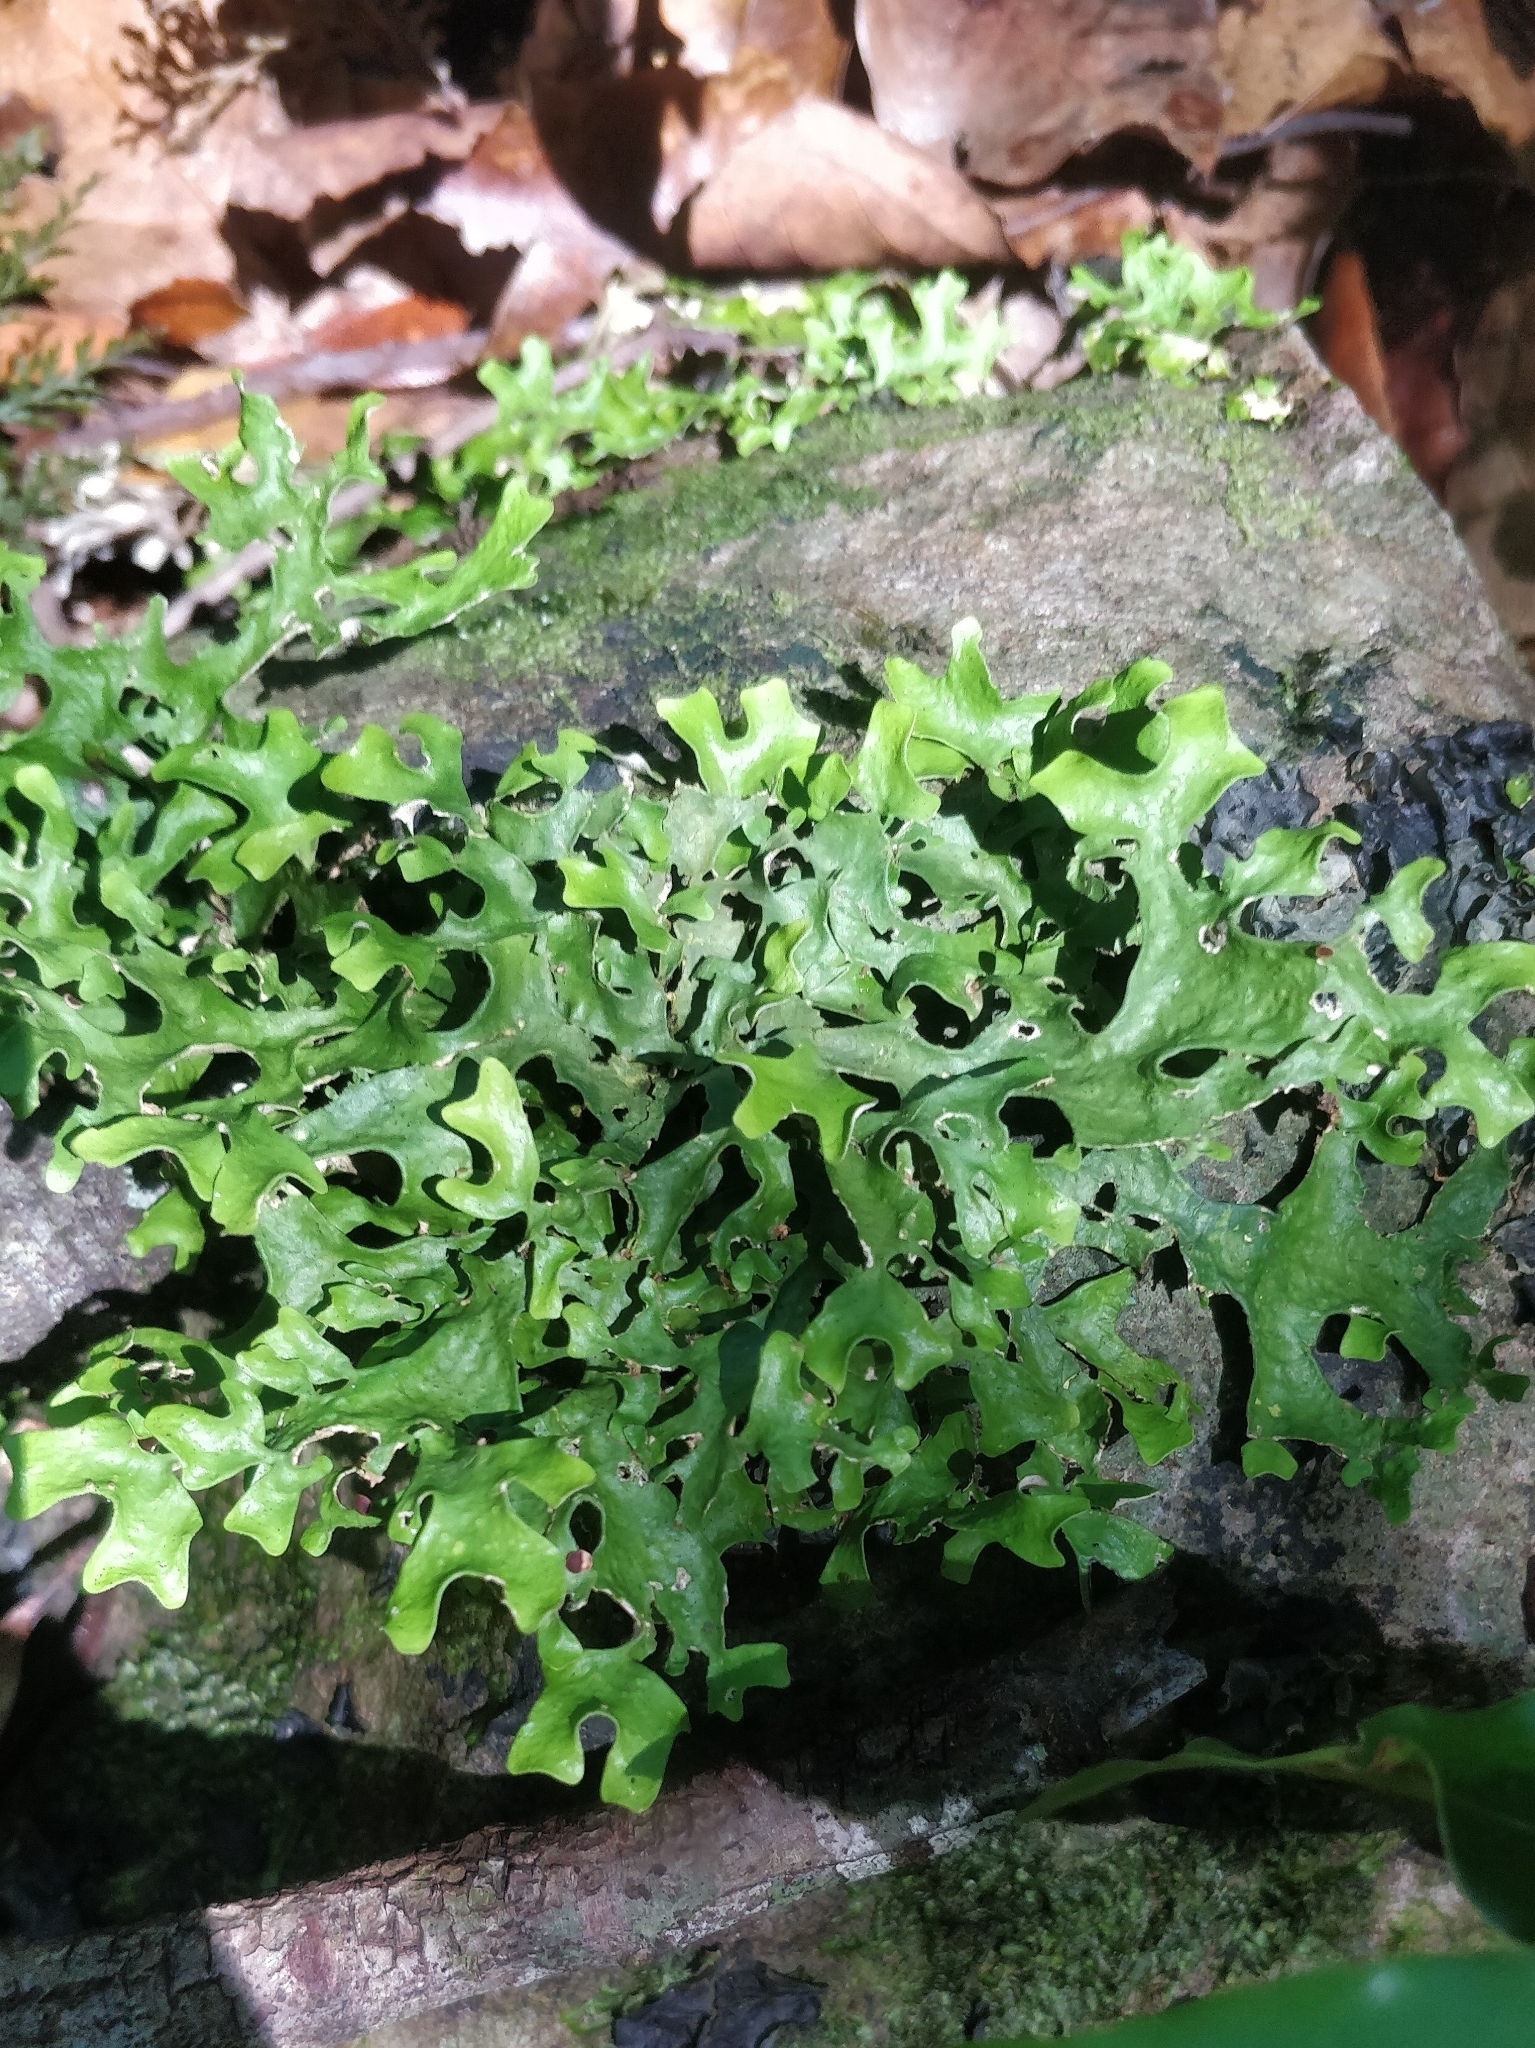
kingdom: Fungi
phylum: Ascomycota
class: Lecanoromycetes
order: Peltigerales
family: Lobariaceae
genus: Sticta
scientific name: Sticta canariensis
